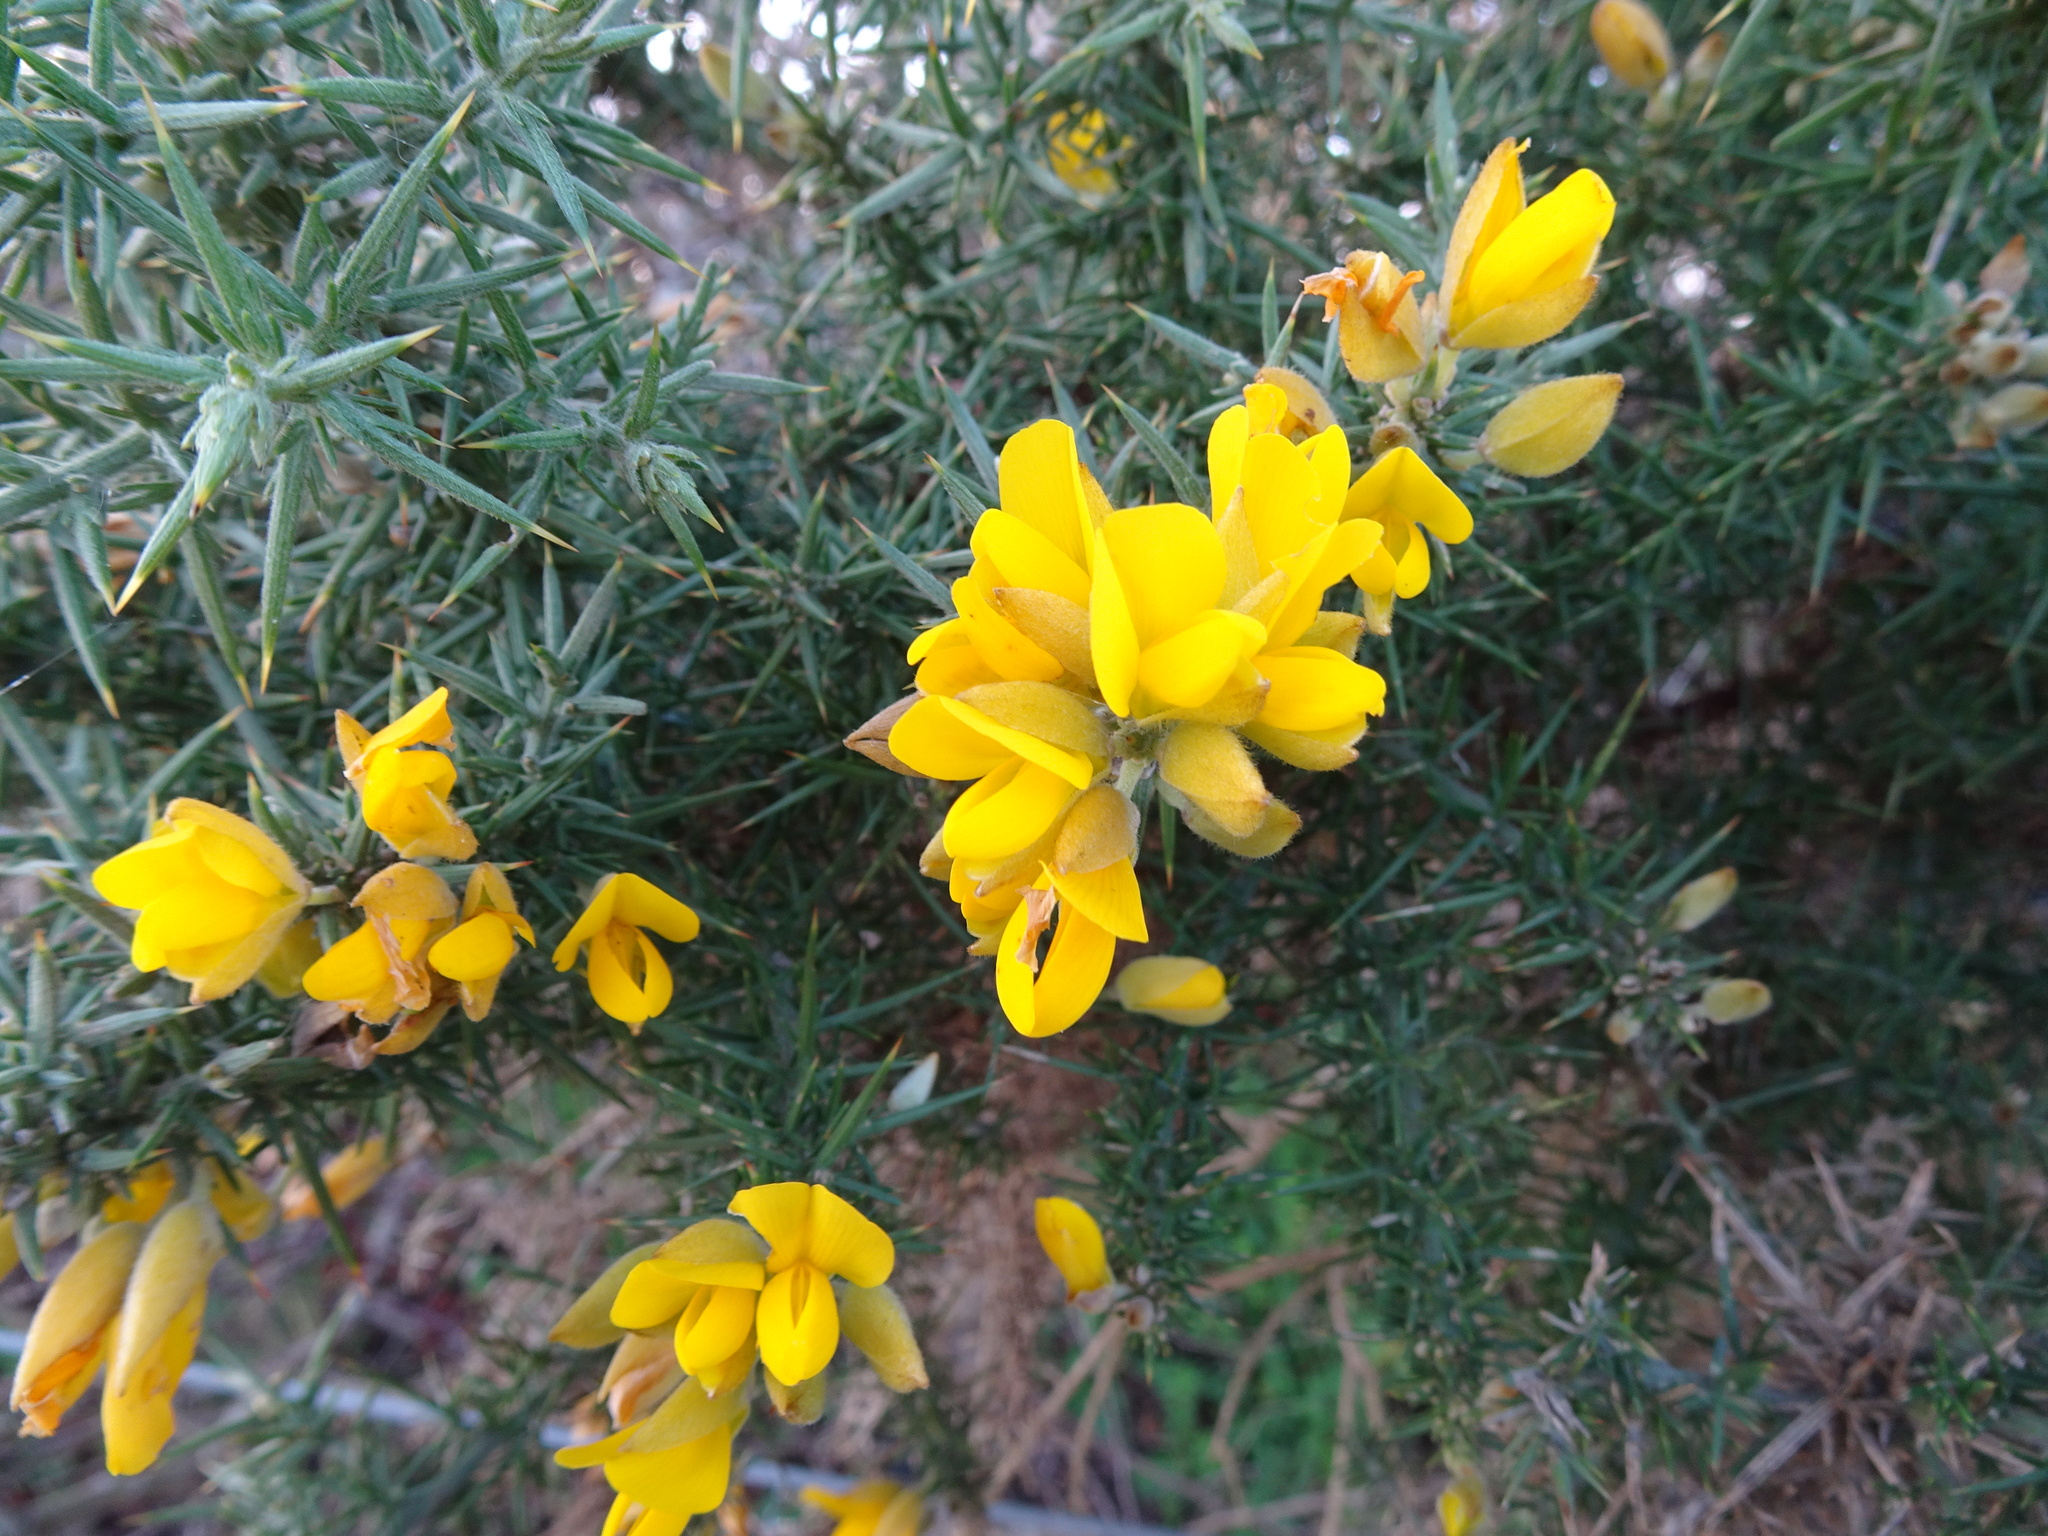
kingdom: Plantae
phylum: Tracheophyta
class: Magnoliopsida
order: Fabales
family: Fabaceae
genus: Ulex
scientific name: Ulex europaeus
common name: Common gorse
